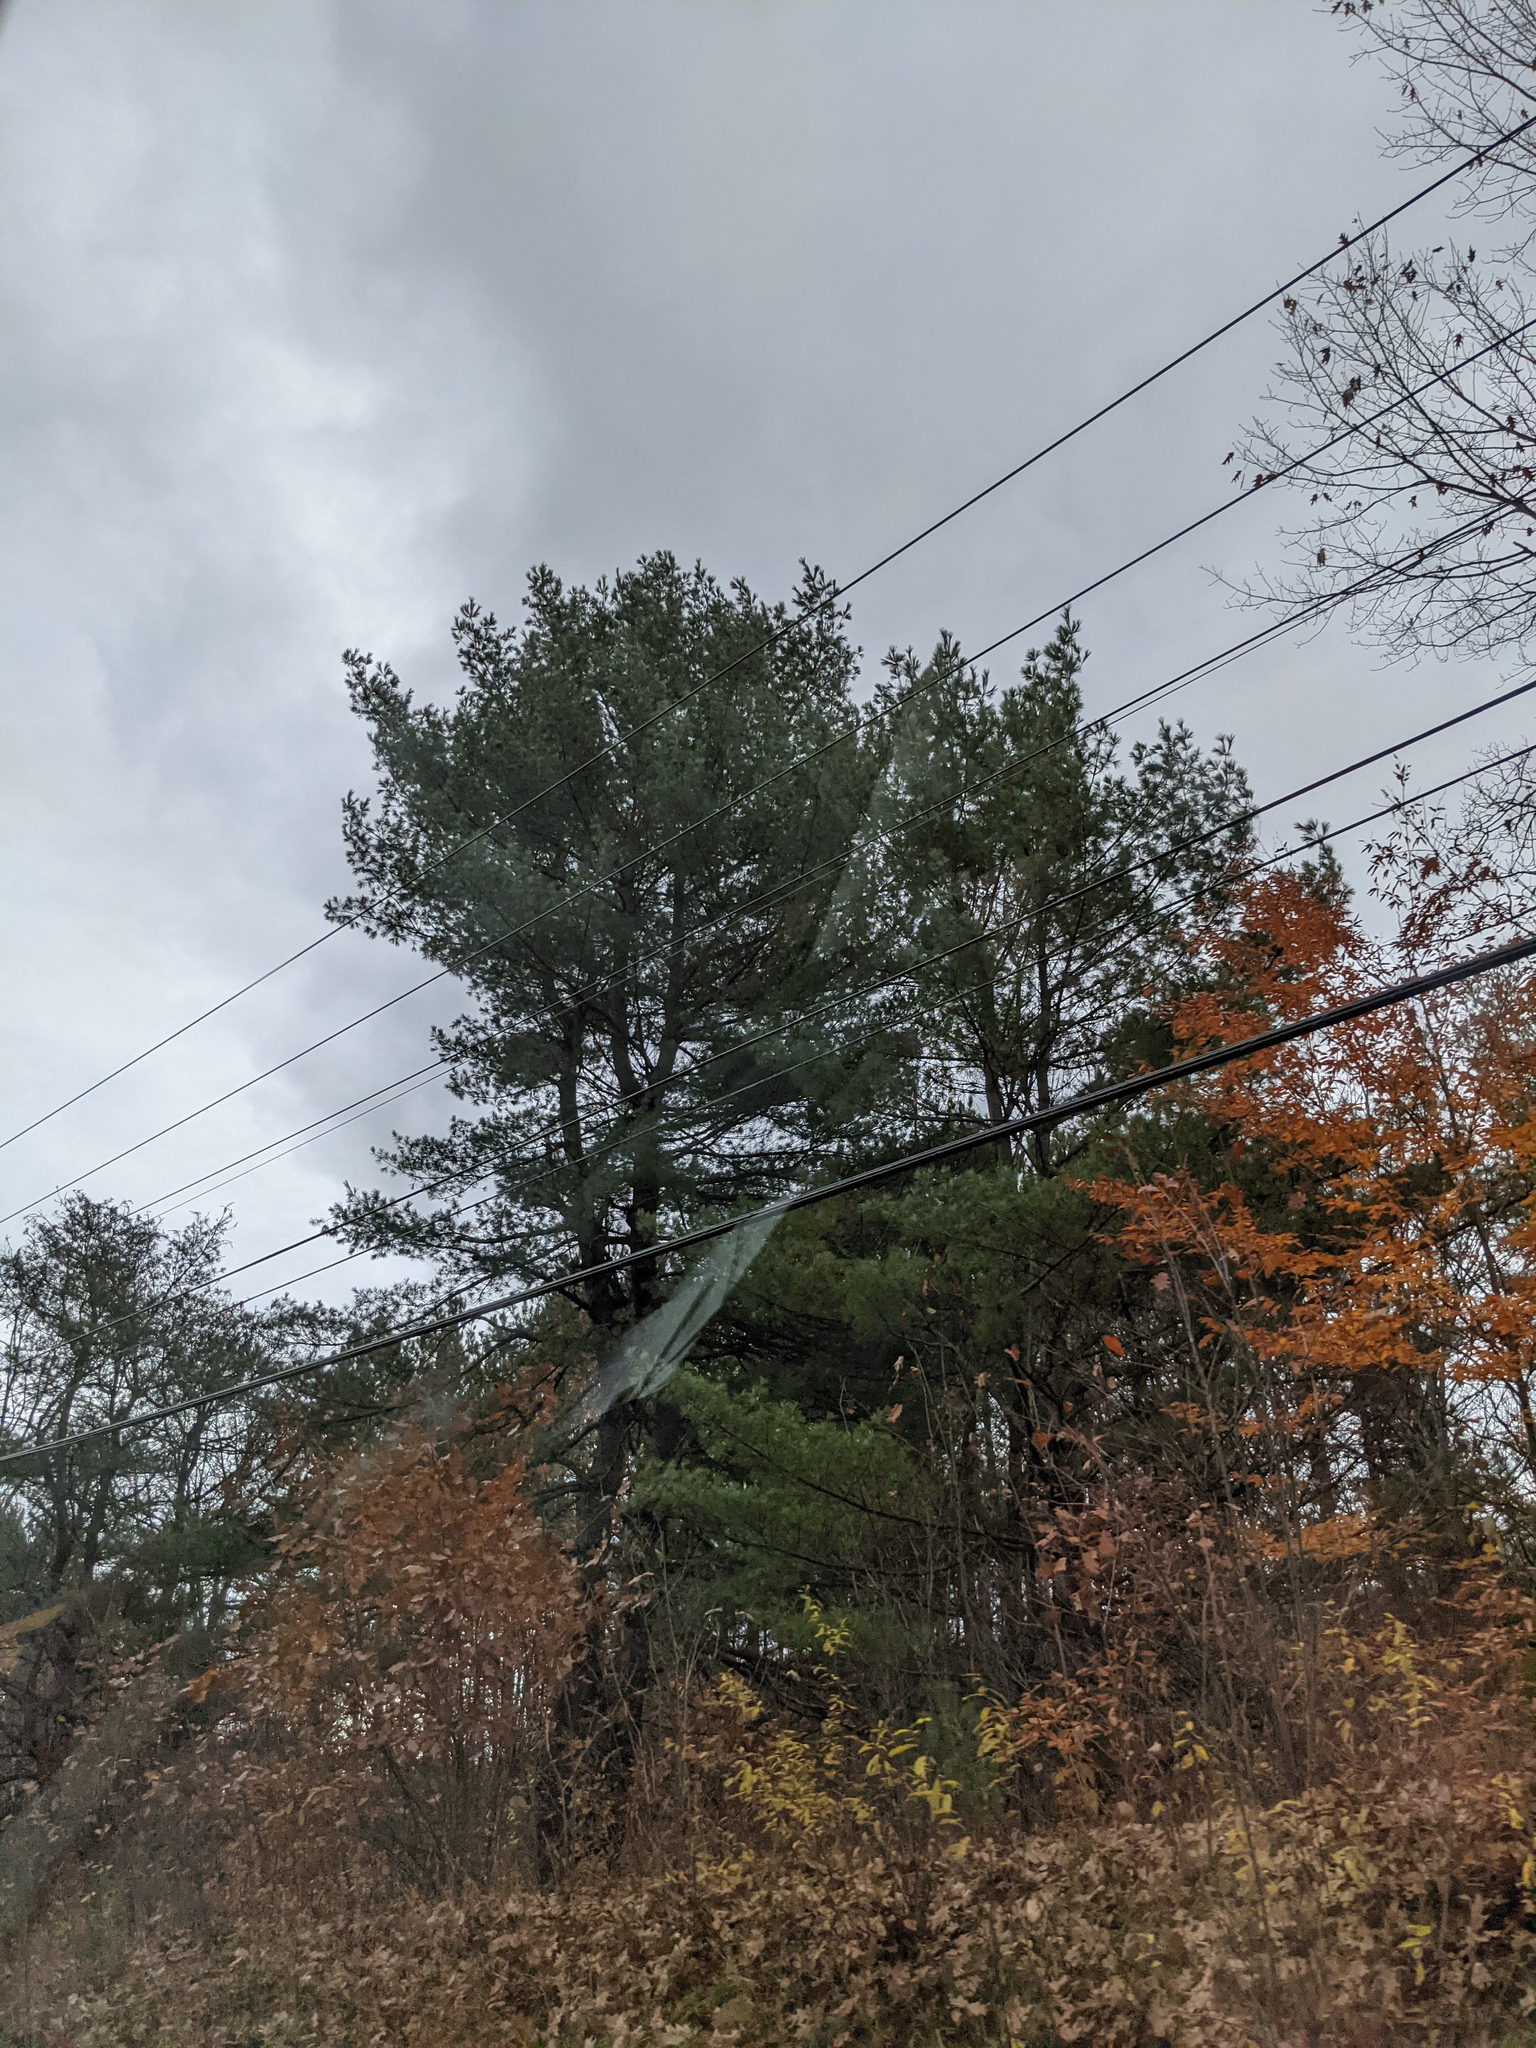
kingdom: Plantae
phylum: Tracheophyta
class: Pinopsida
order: Pinales
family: Pinaceae
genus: Pinus
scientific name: Pinus strobus
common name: Weymouth pine
